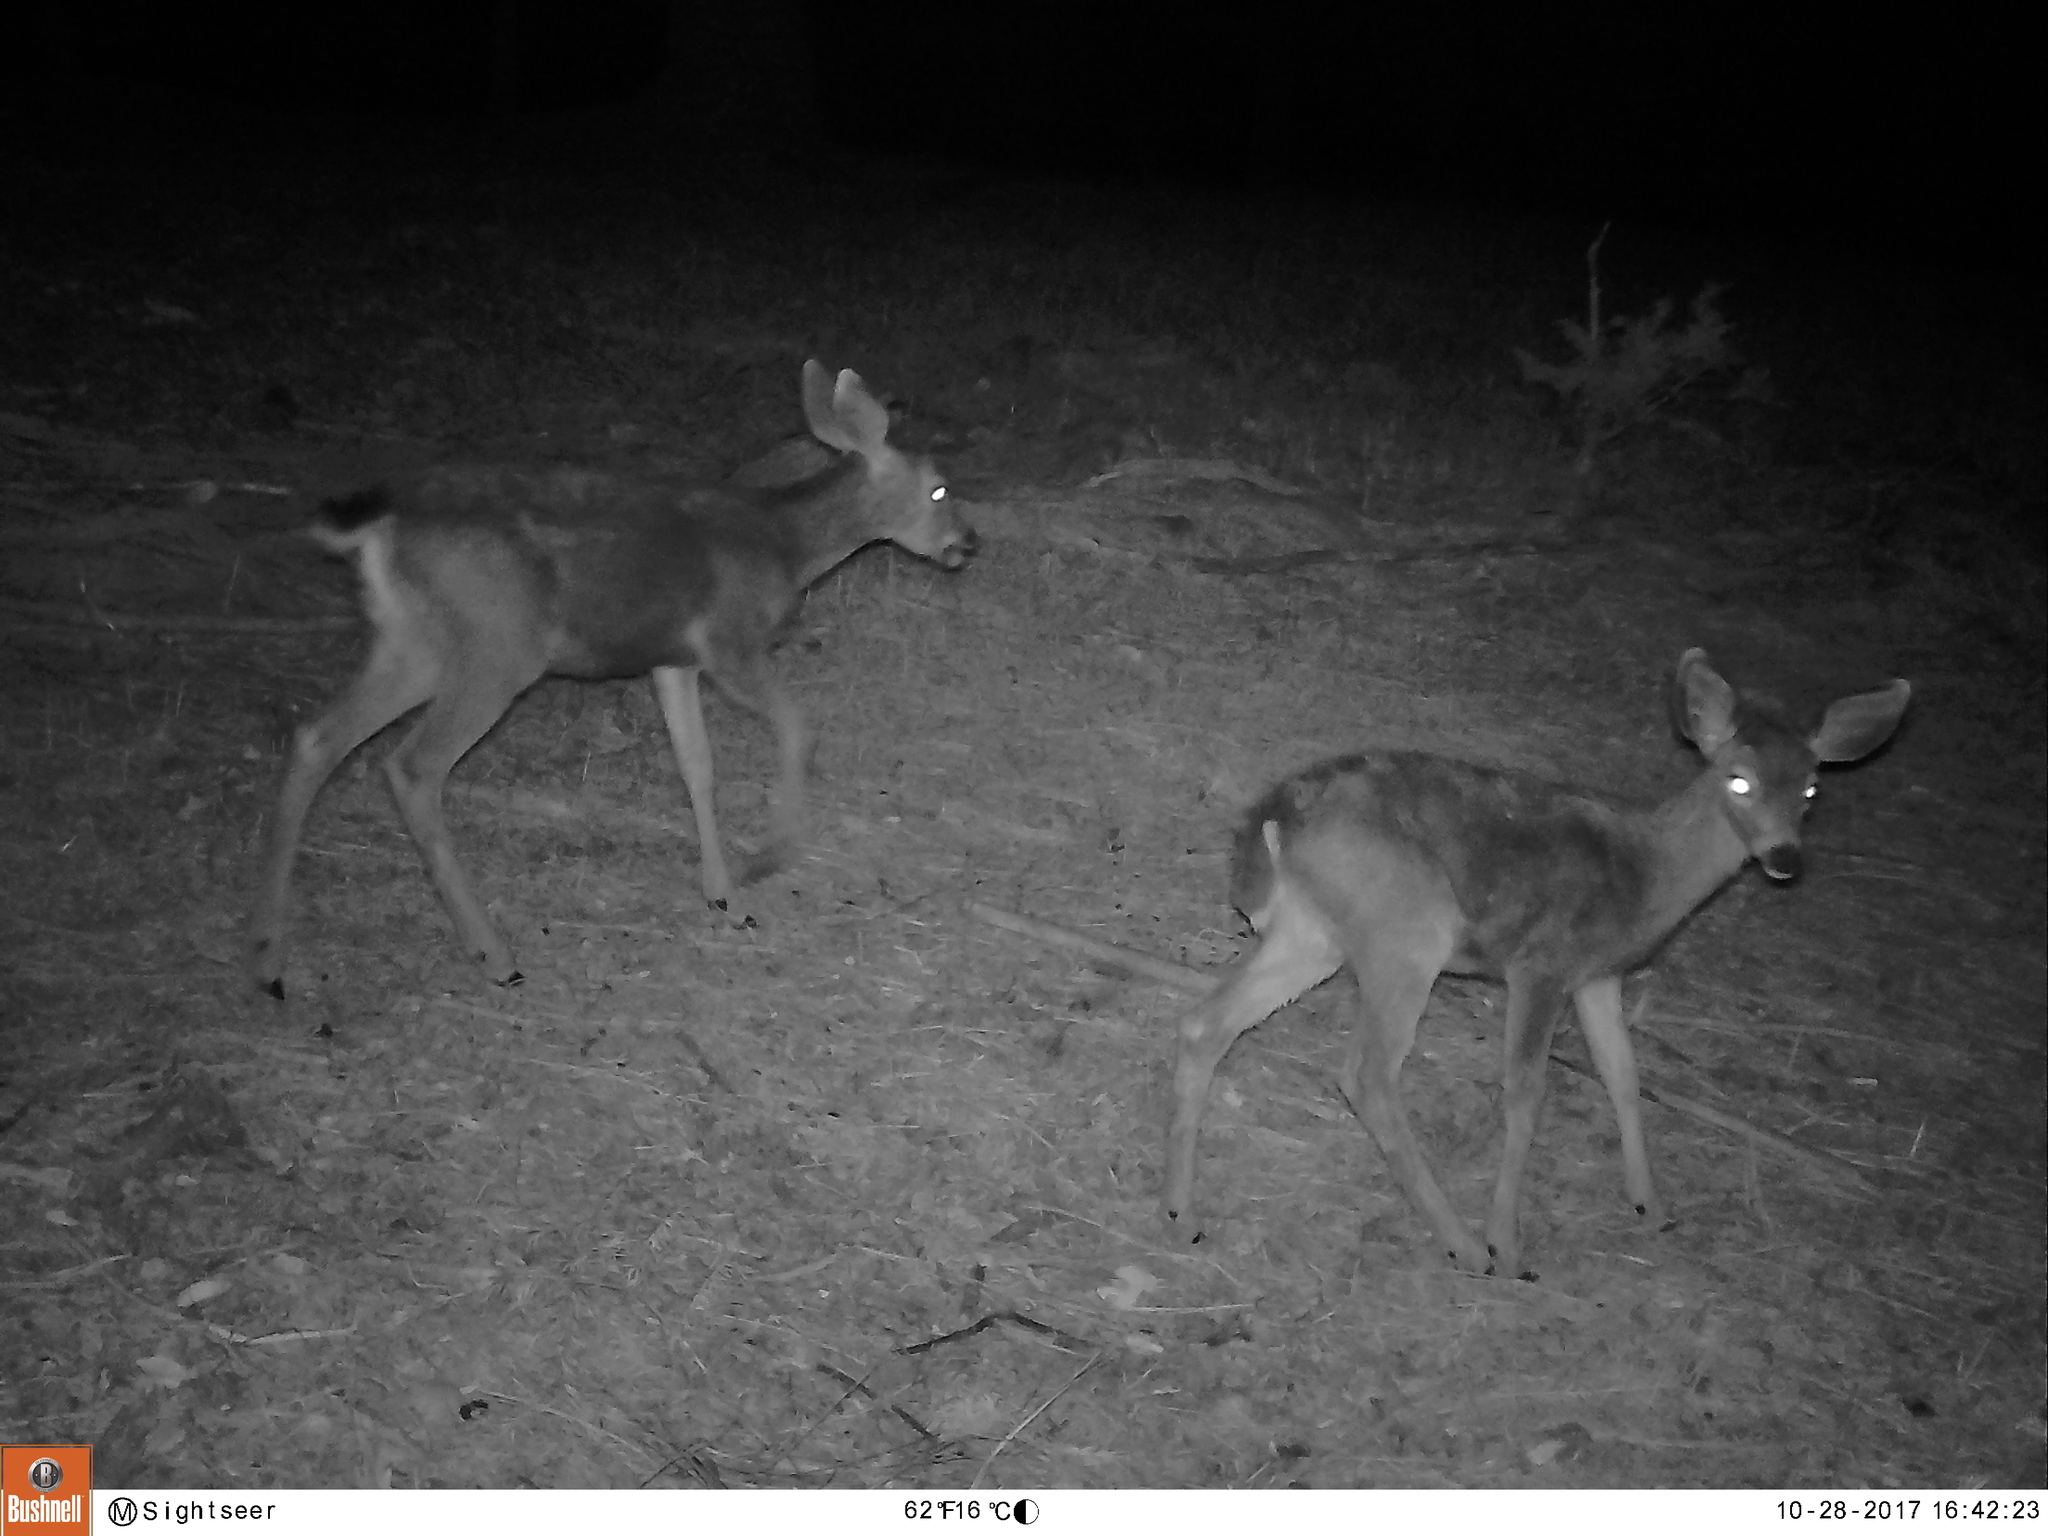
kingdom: Animalia
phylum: Chordata
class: Mammalia
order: Artiodactyla
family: Cervidae
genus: Odocoileus
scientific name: Odocoileus hemionus
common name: Mule deer
